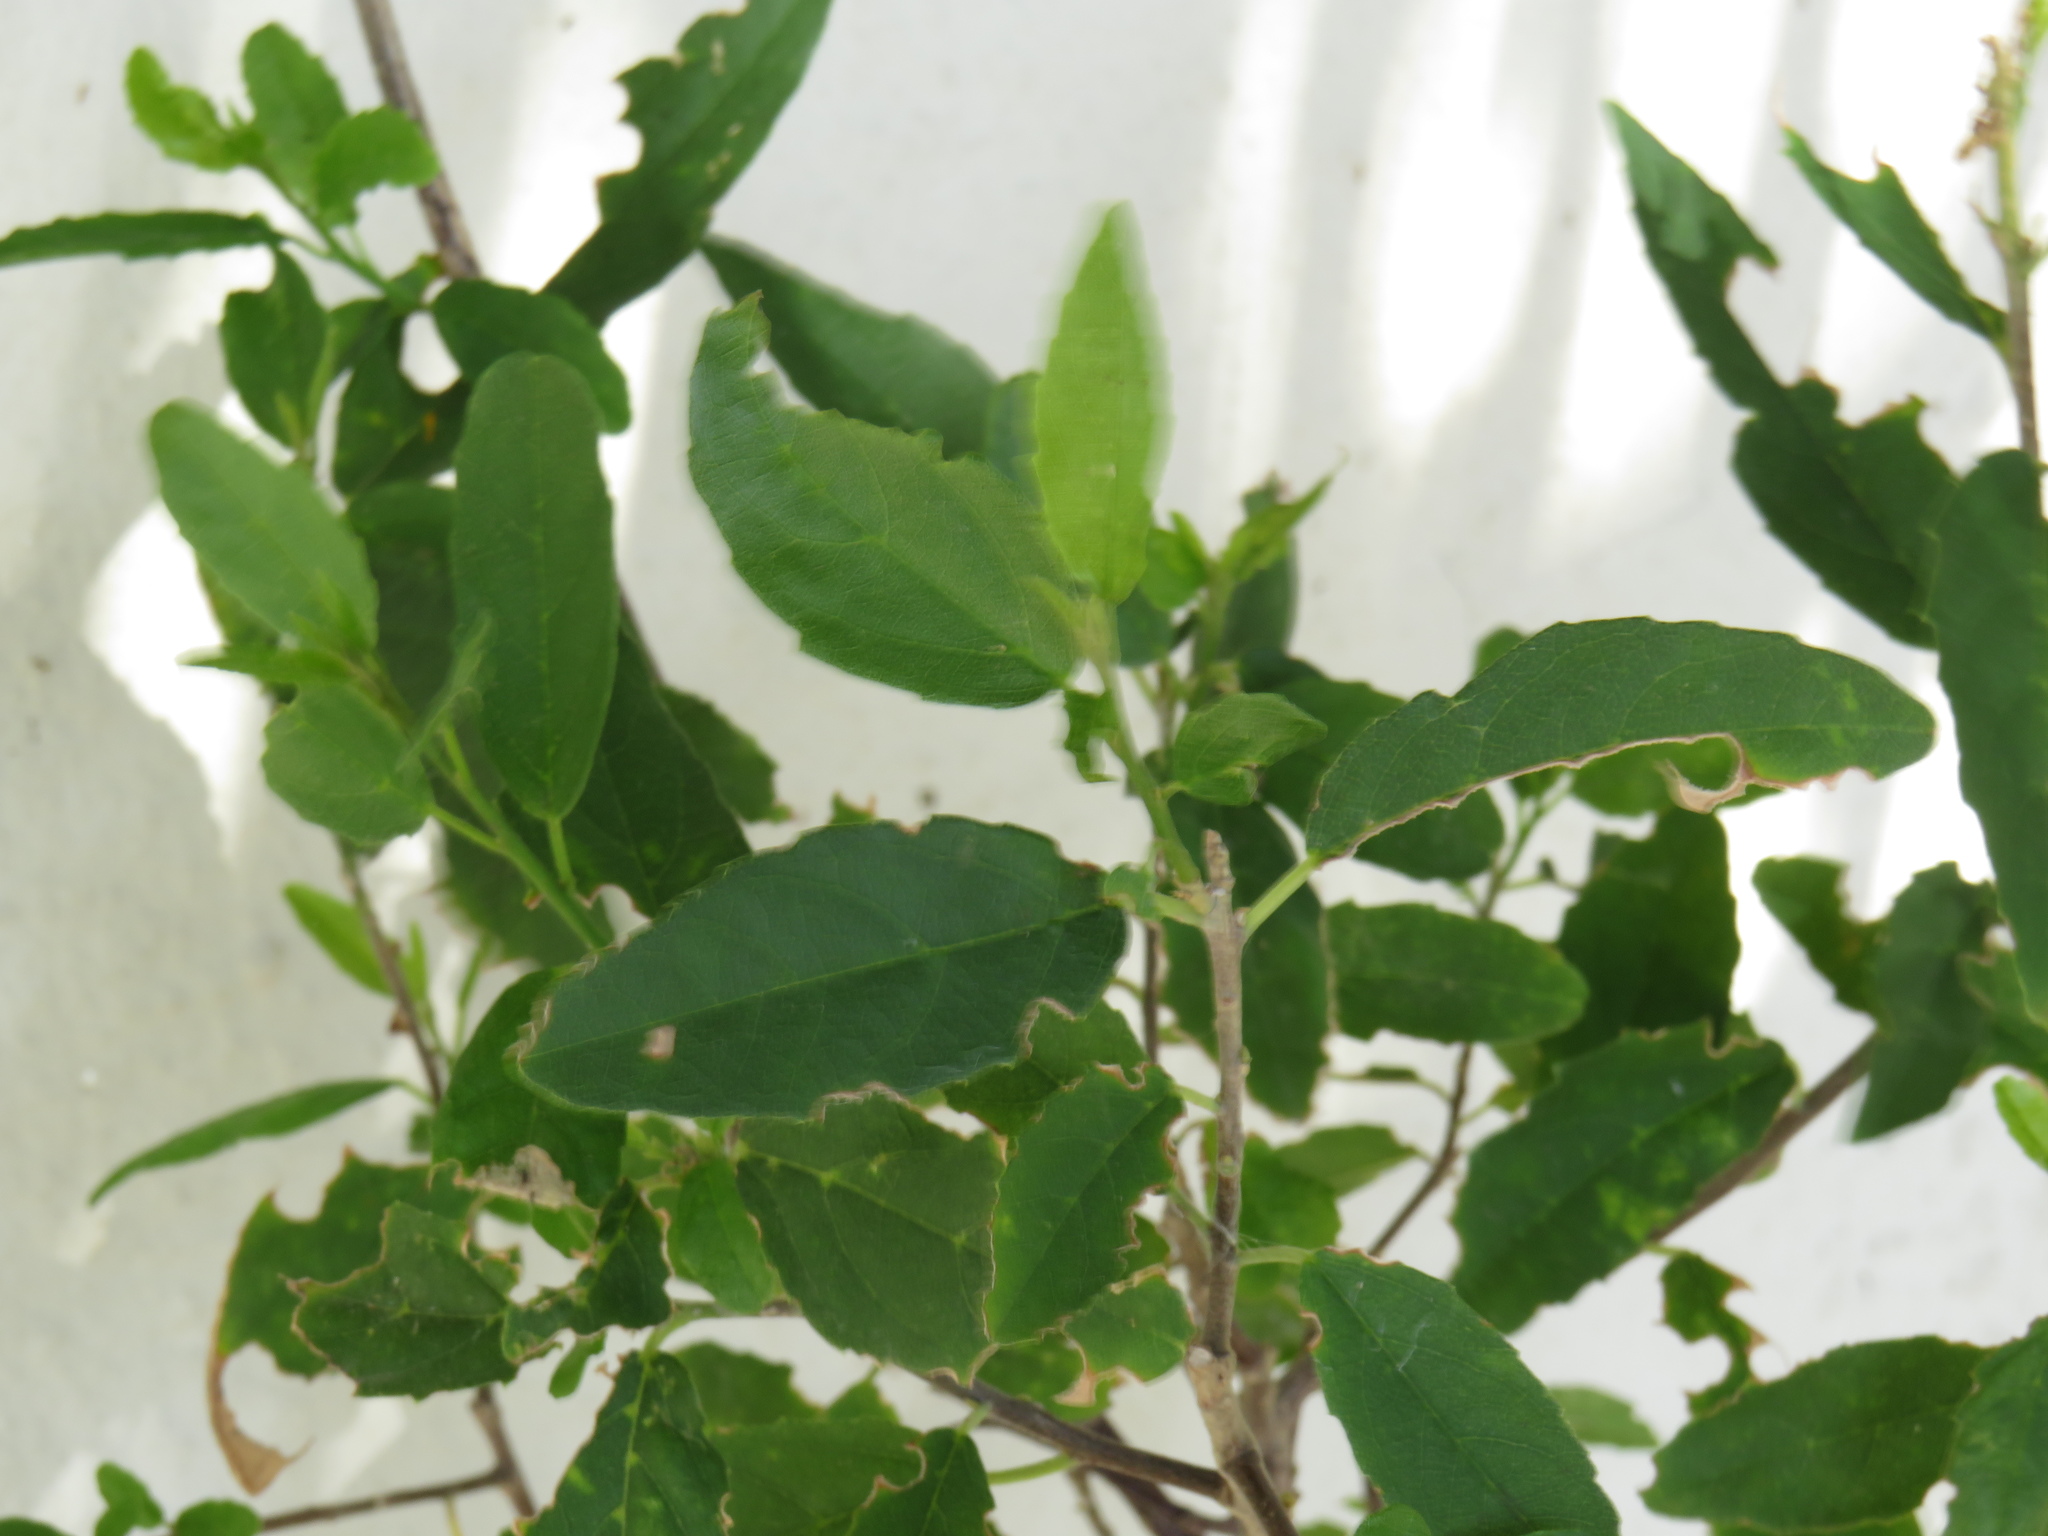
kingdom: Plantae
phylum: Tracheophyta
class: Magnoliopsida
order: Malpighiales
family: Achariaceae
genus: Kiggelaria
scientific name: Kiggelaria africana
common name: Wild peach
